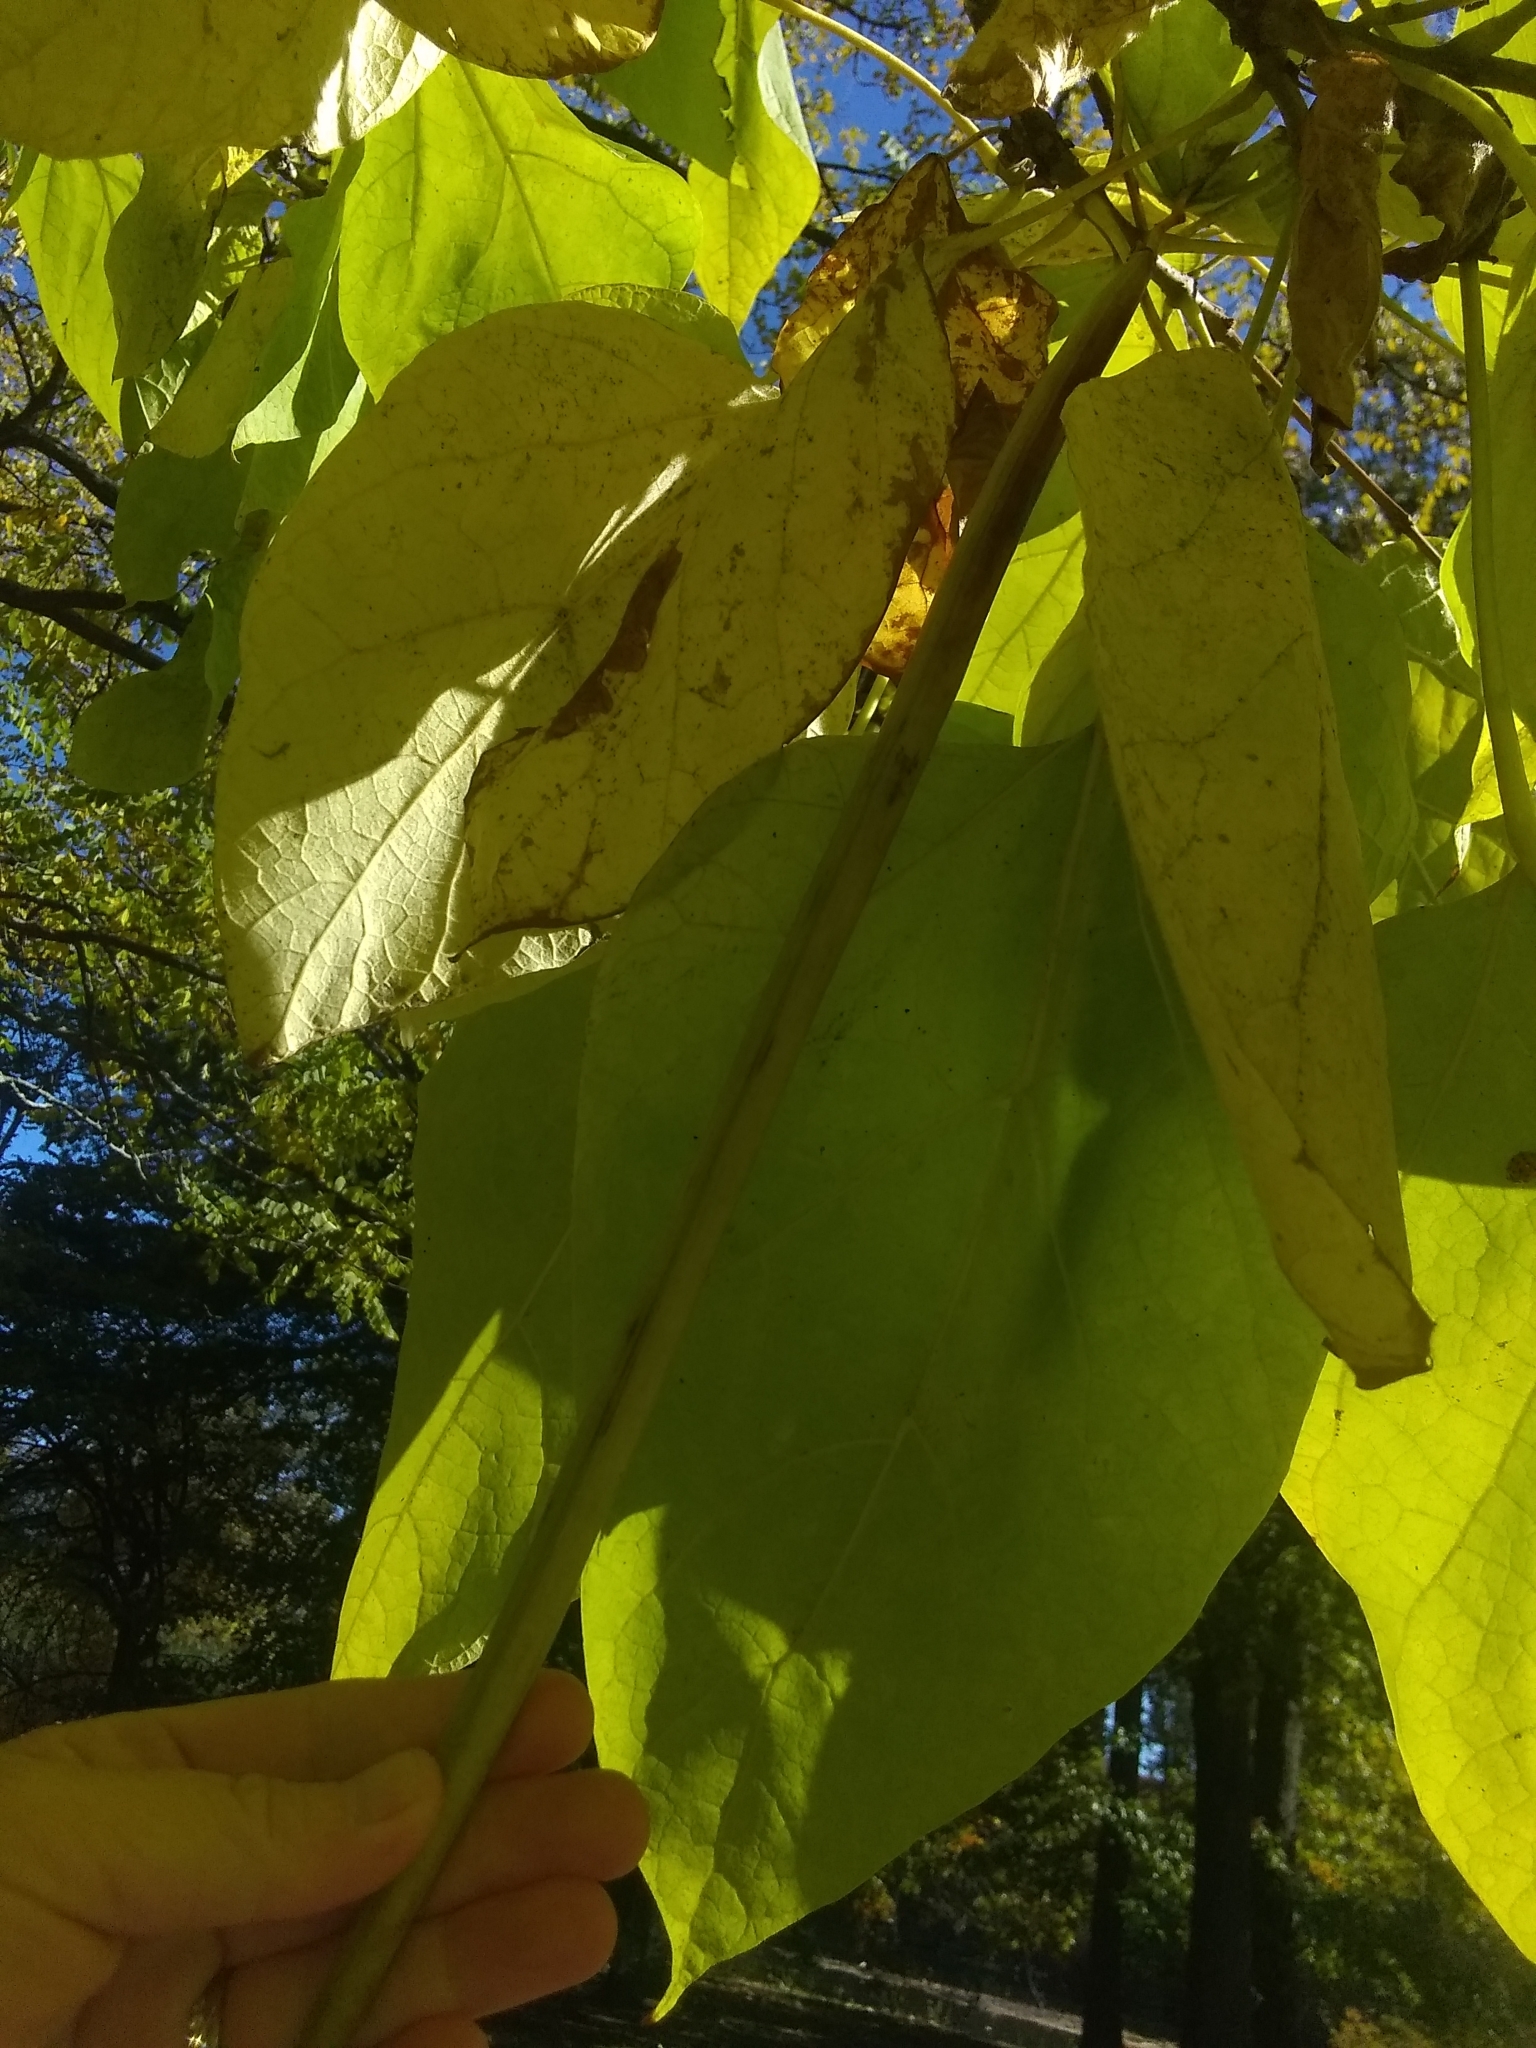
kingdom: Plantae
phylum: Tracheophyta
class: Magnoliopsida
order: Lamiales
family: Bignoniaceae
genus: Catalpa
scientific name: Catalpa speciosa
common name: Northern catalpa
